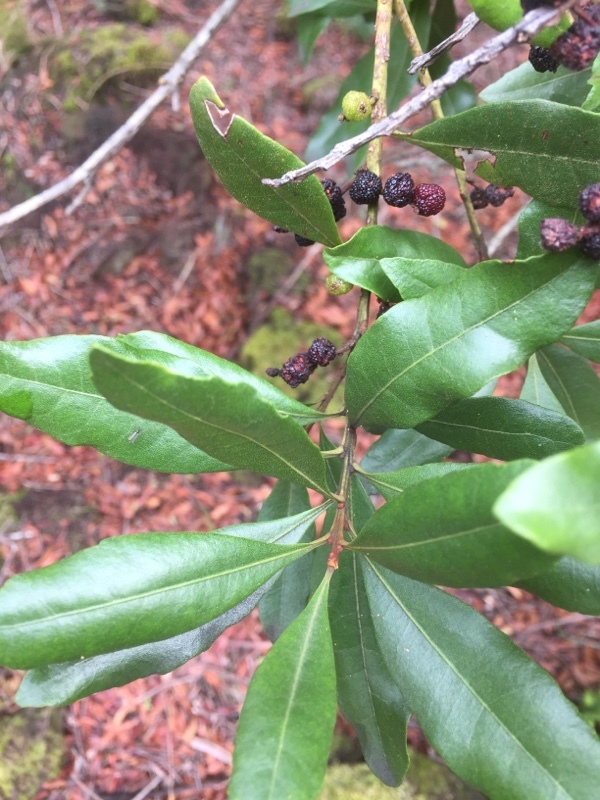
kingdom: Plantae
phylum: Tracheophyta
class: Magnoliopsida
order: Fagales
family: Myricaceae
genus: Morella
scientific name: Morella faya
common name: Firetree
